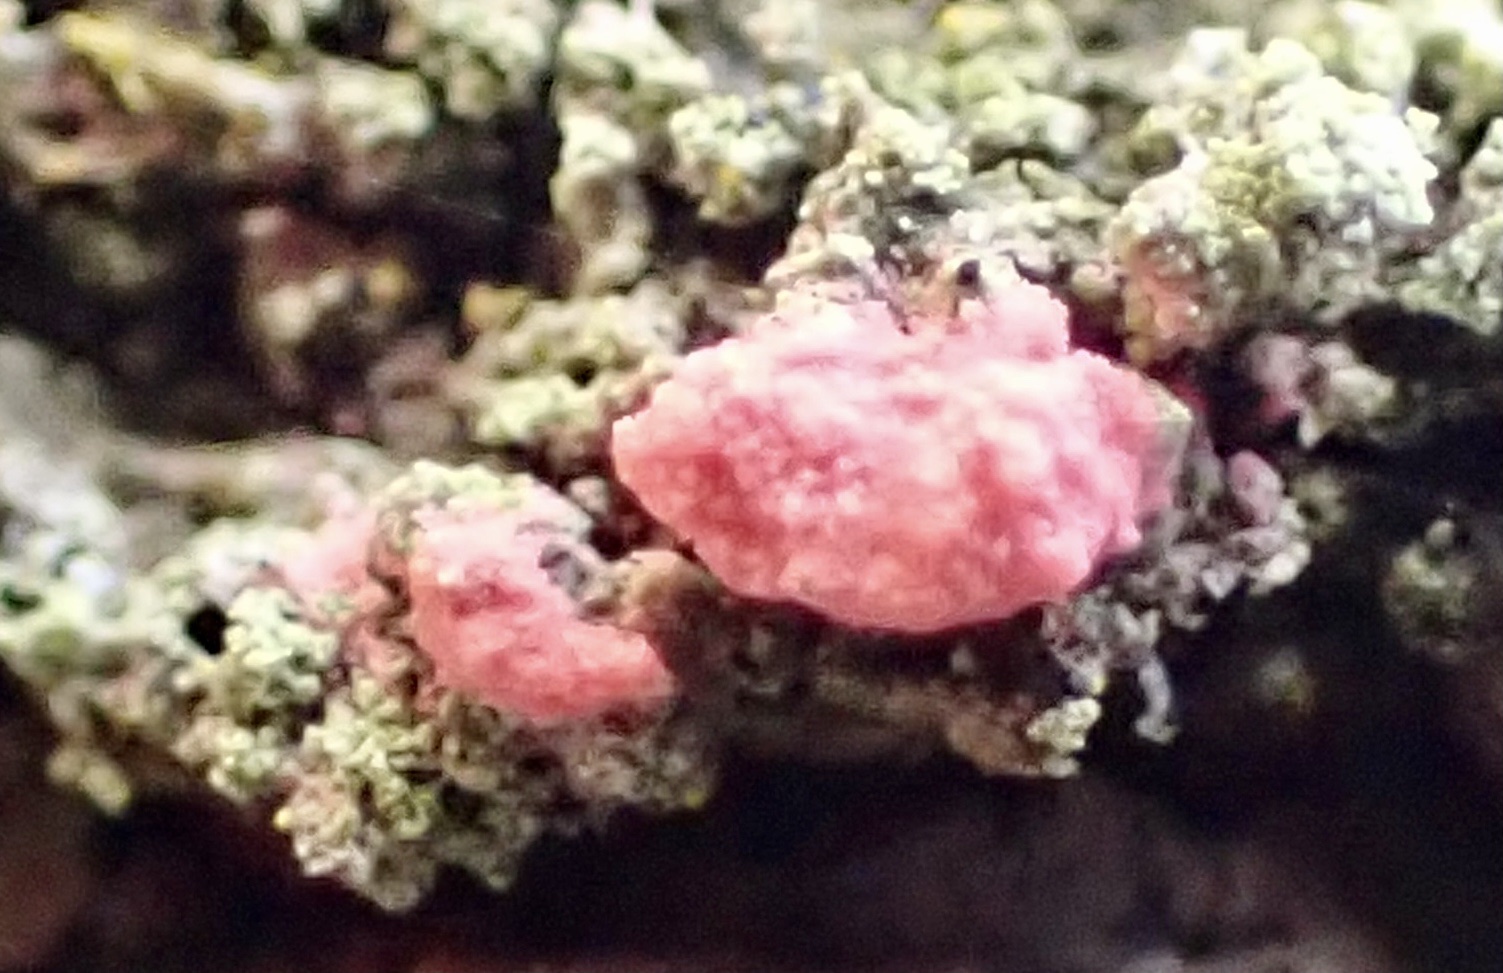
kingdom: Fungi
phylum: Ascomycota
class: Sordariomycetes
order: Hypocreales
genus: Illosporiopsis
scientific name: Illosporiopsis christiansenii
